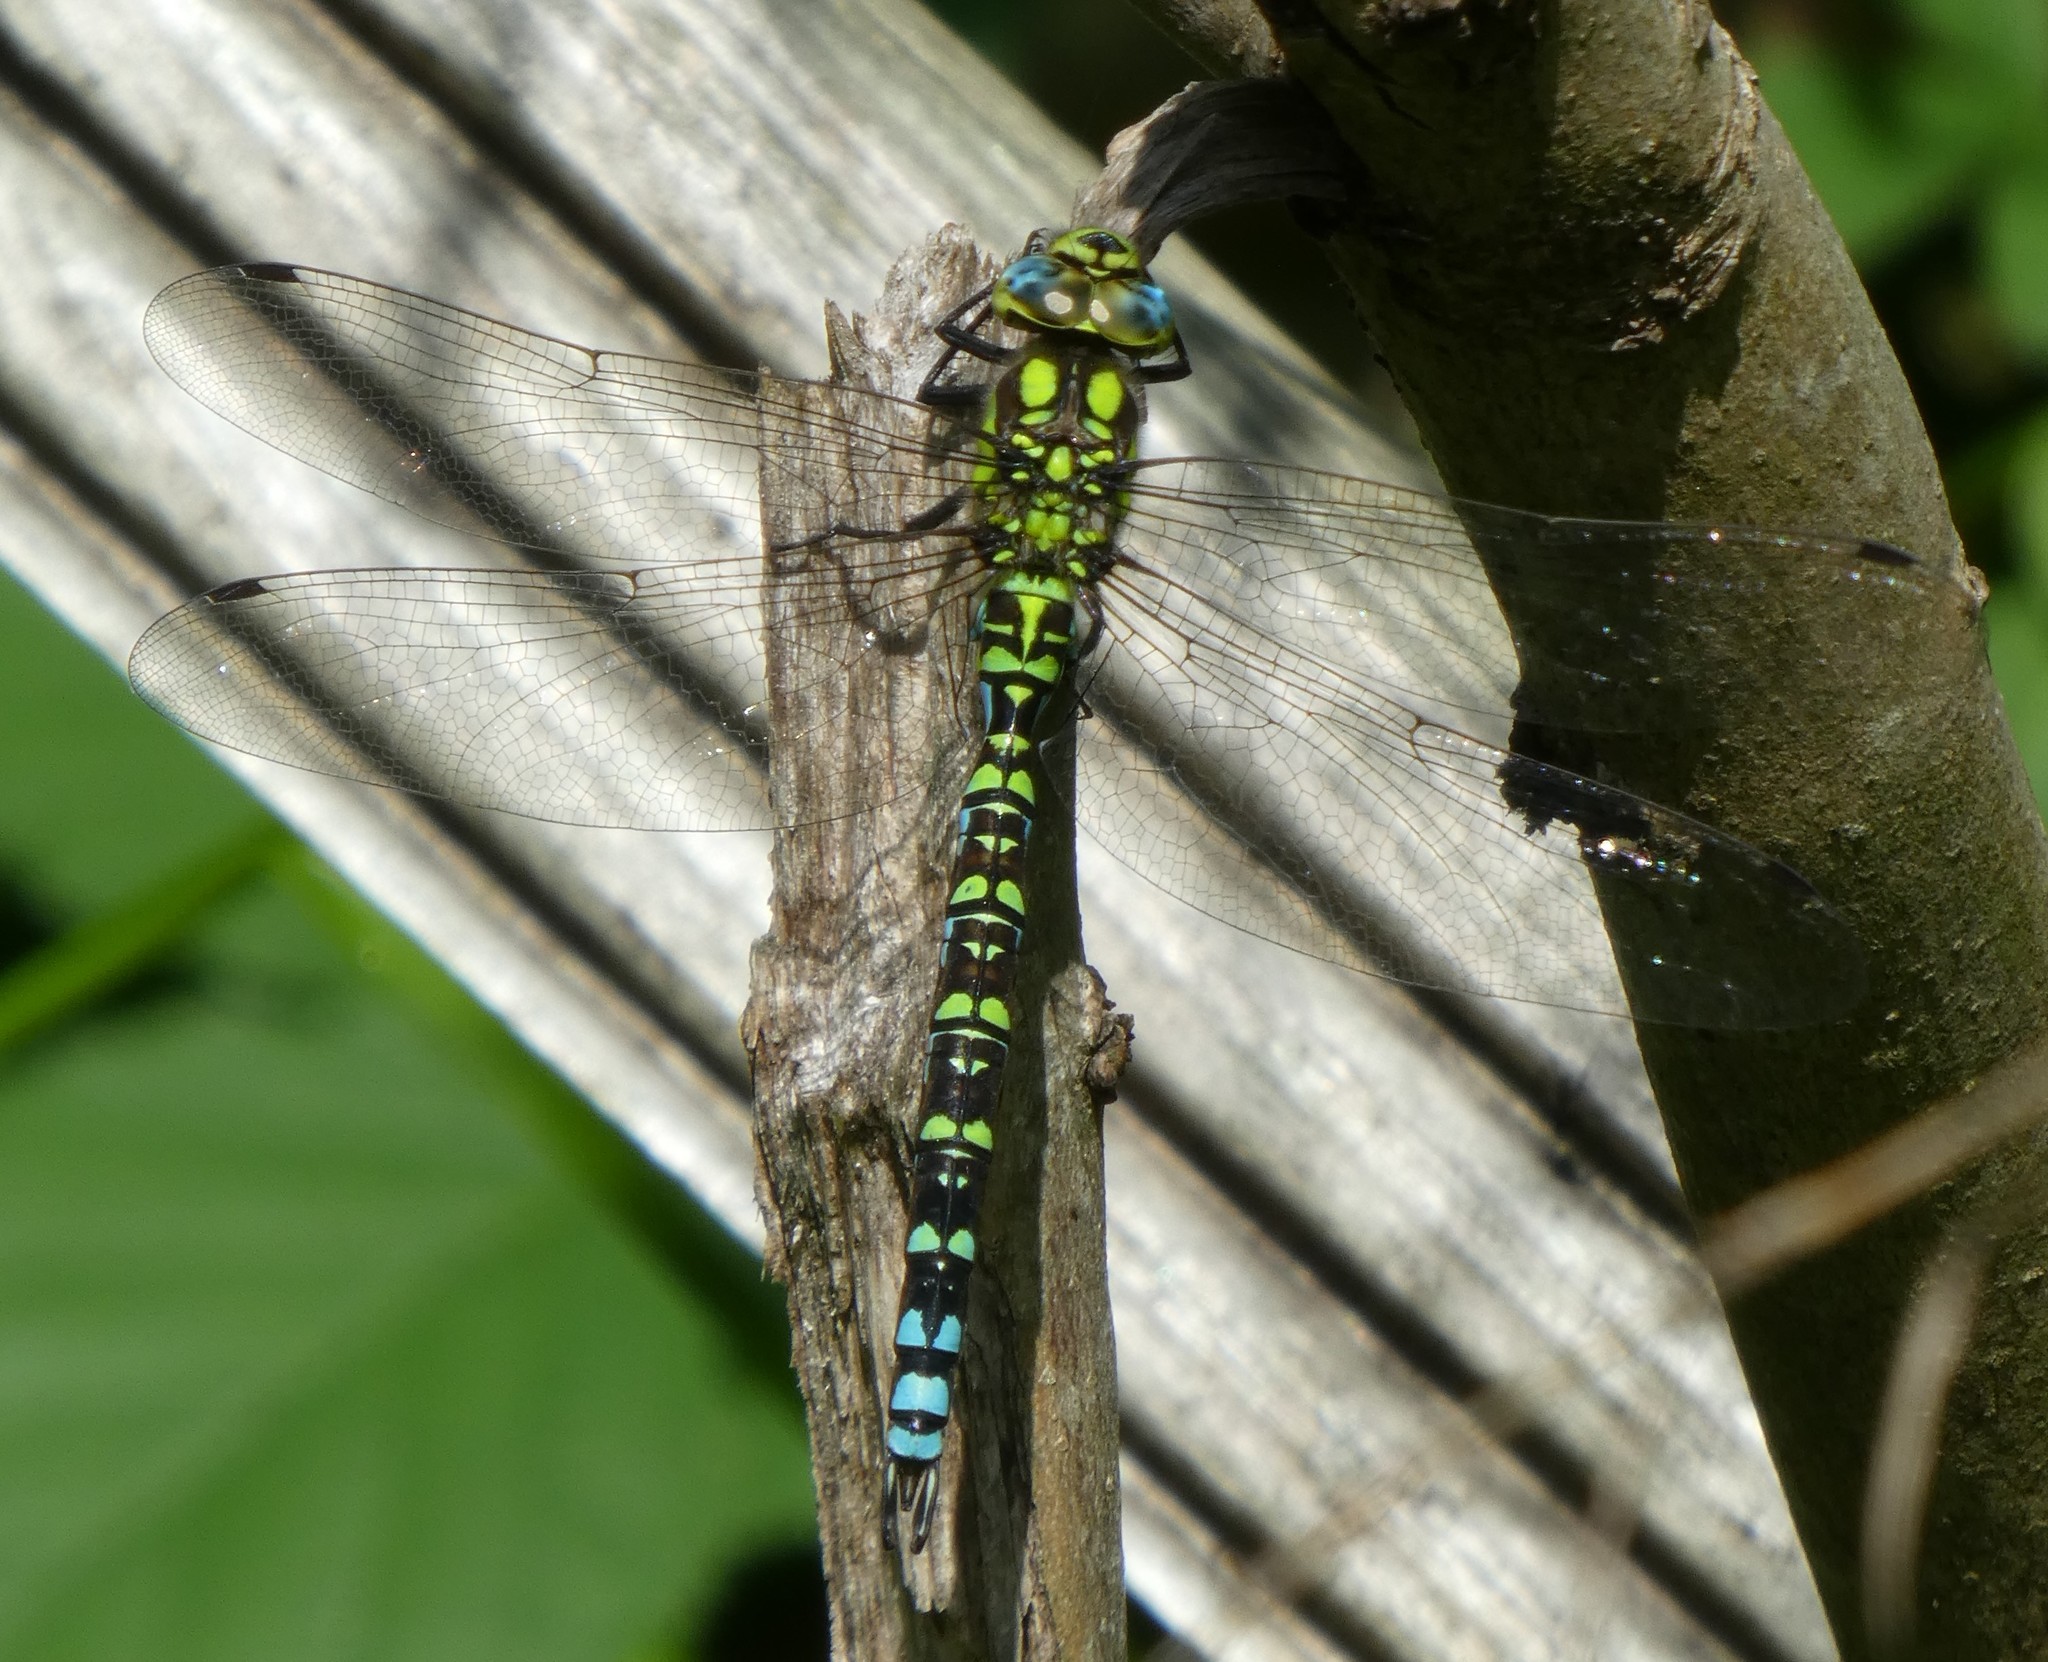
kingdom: Animalia
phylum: Arthropoda
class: Insecta
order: Odonata
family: Aeshnidae
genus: Aeshna
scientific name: Aeshna cyanea
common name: Southern hawker
